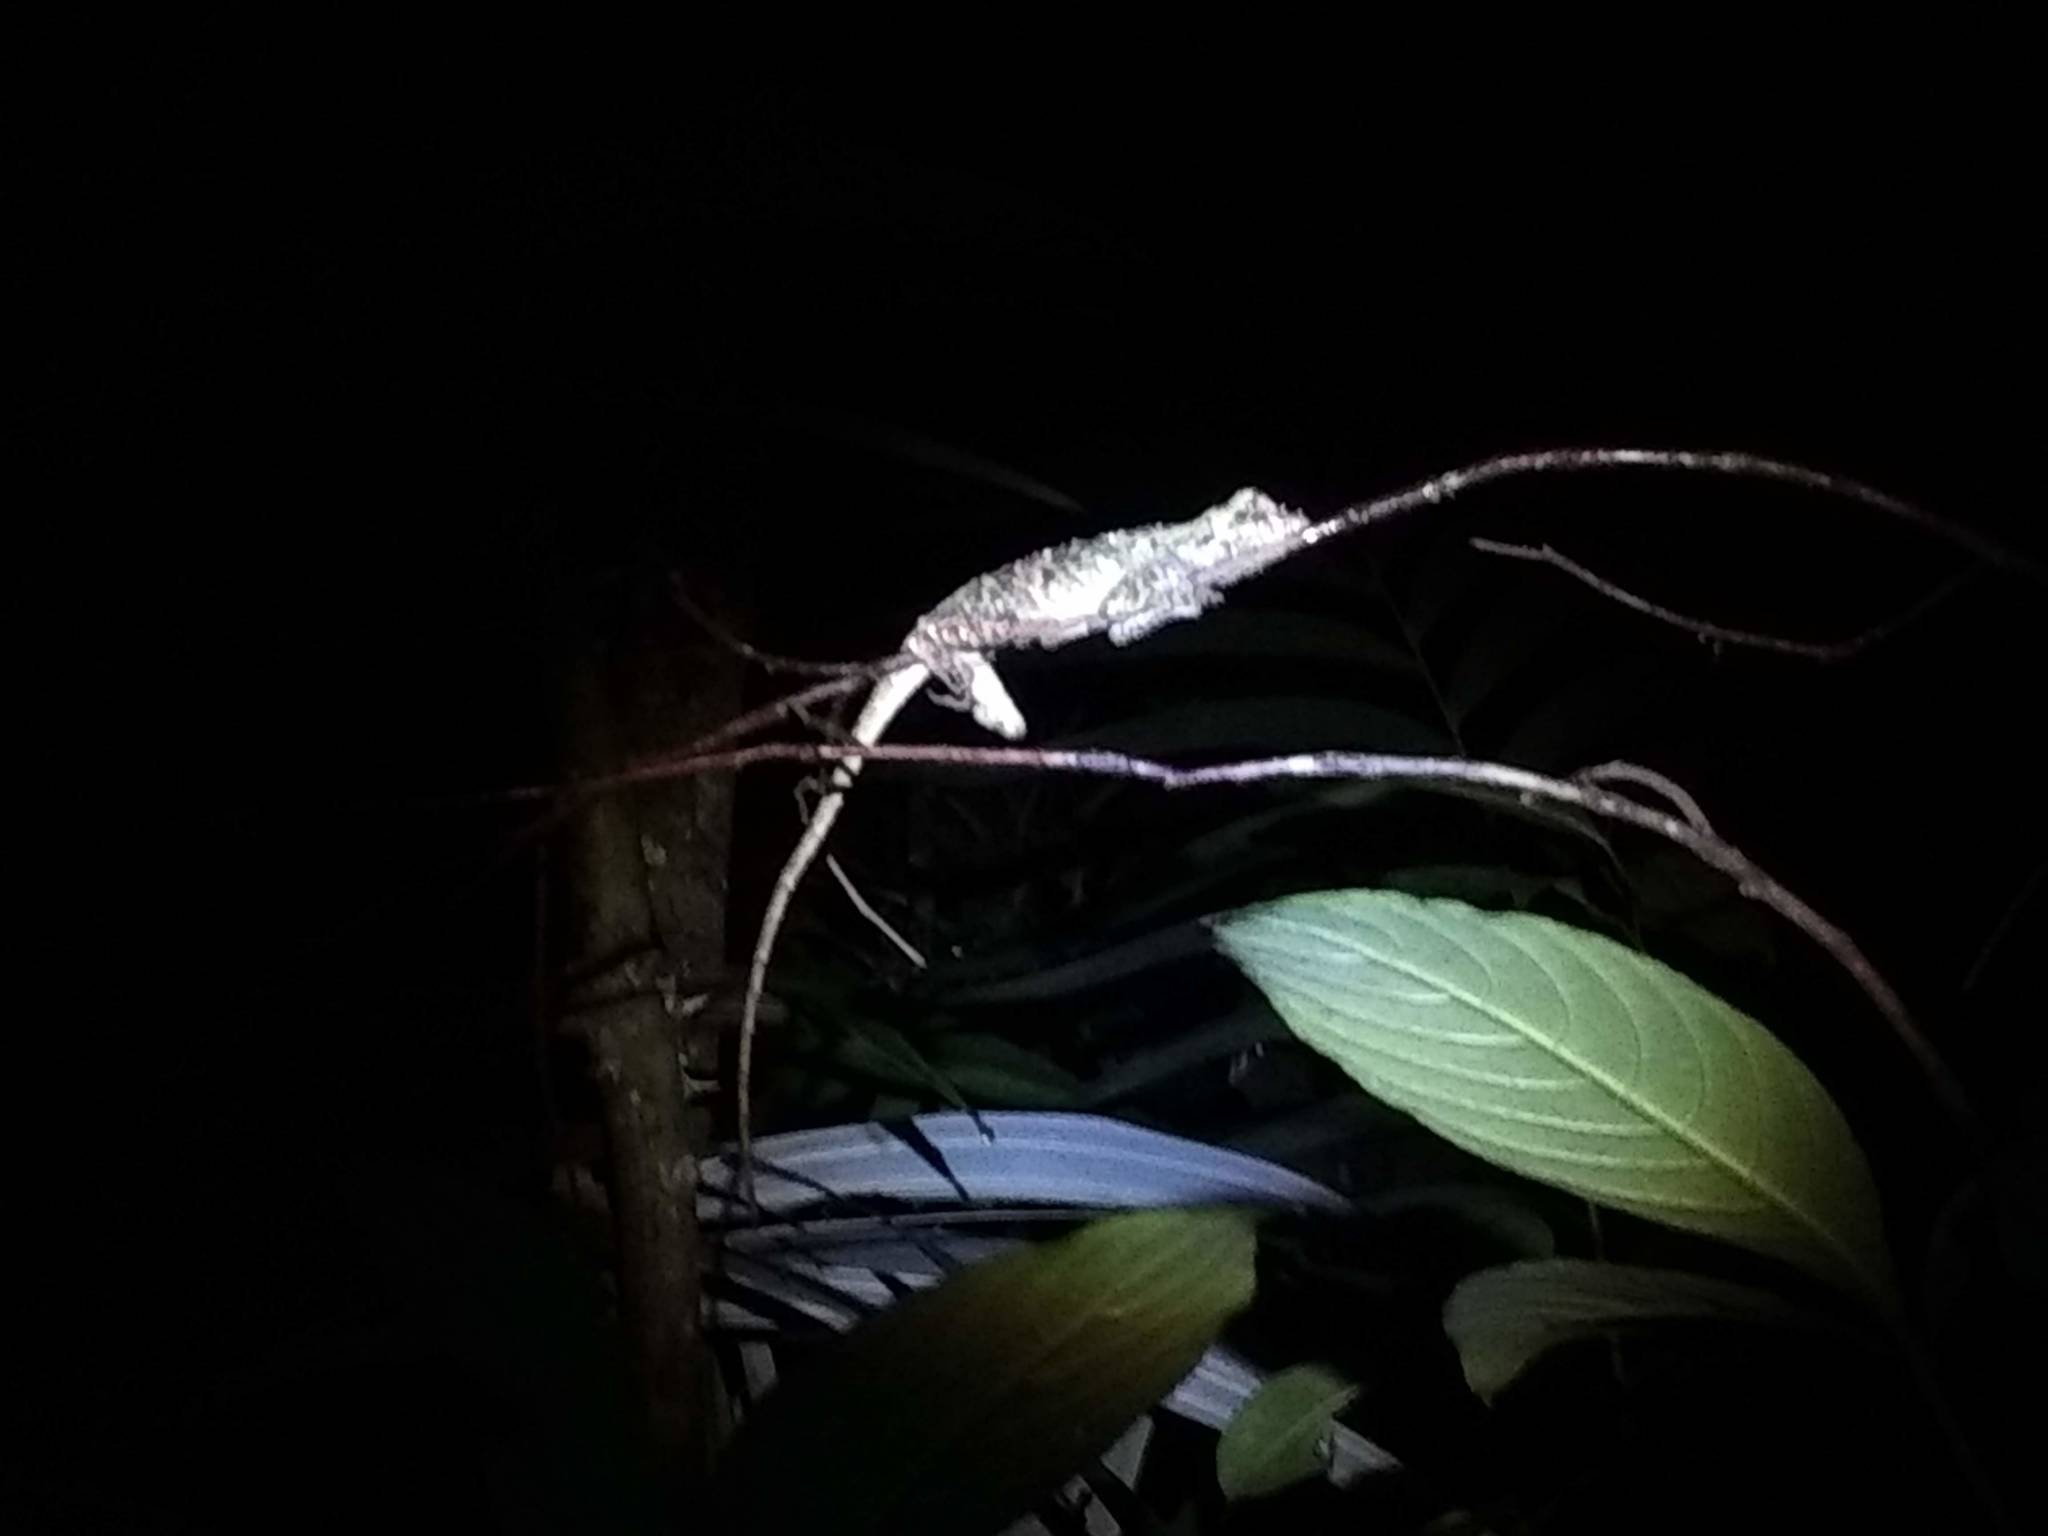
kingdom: Animalia
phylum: Chordata
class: Squamata
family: Dactyloidae
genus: Anolis
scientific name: Anolis capito
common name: Bighead anole
